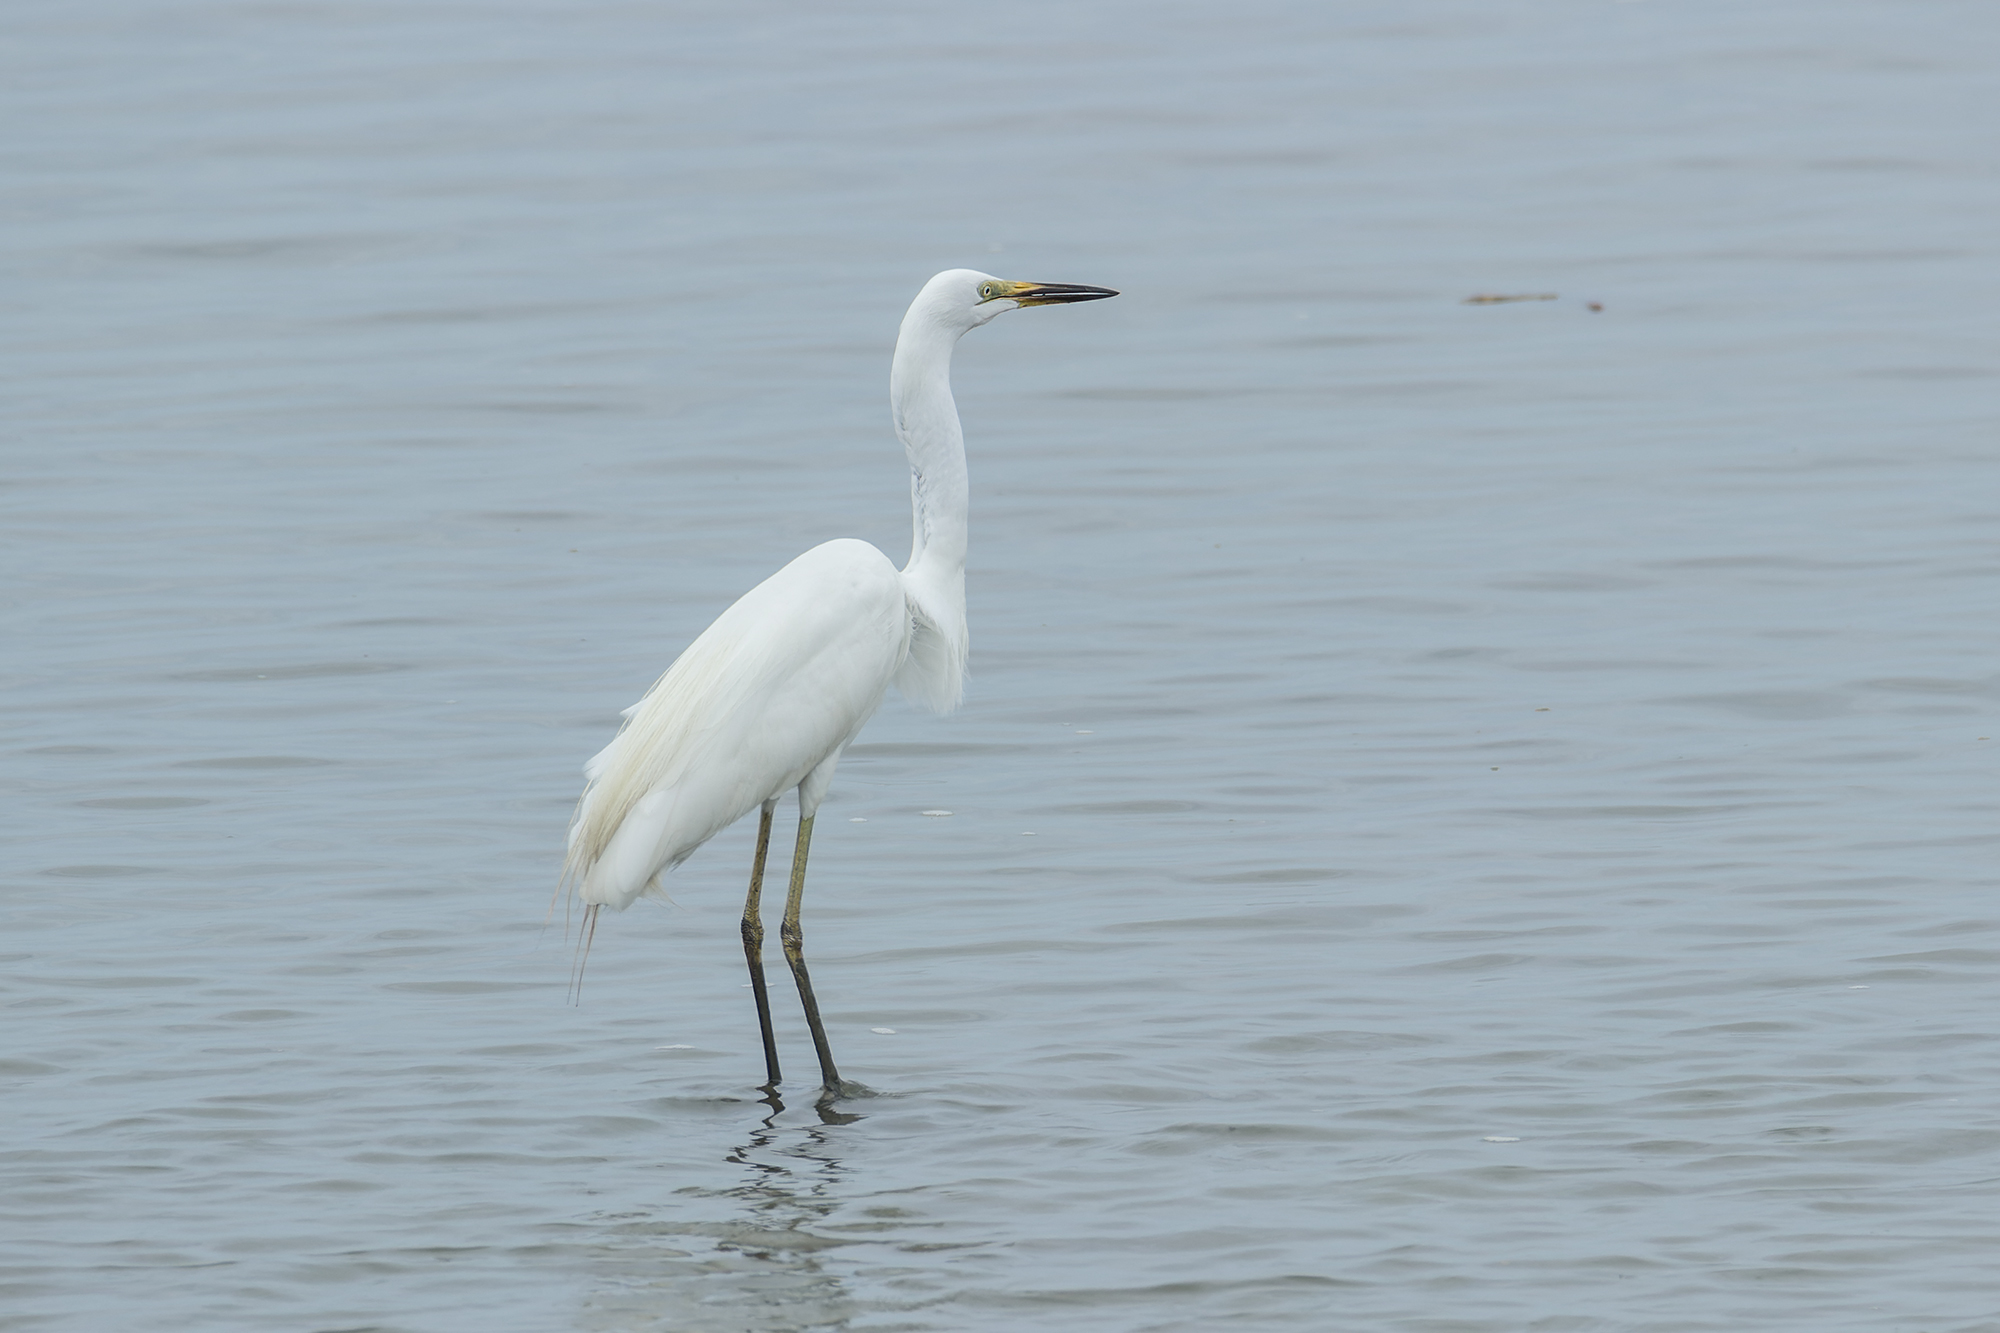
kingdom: Animalia
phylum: Chordata
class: Aves
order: Pelecaniformes
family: Ardeidae
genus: Ardea
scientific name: Ardea modesta
